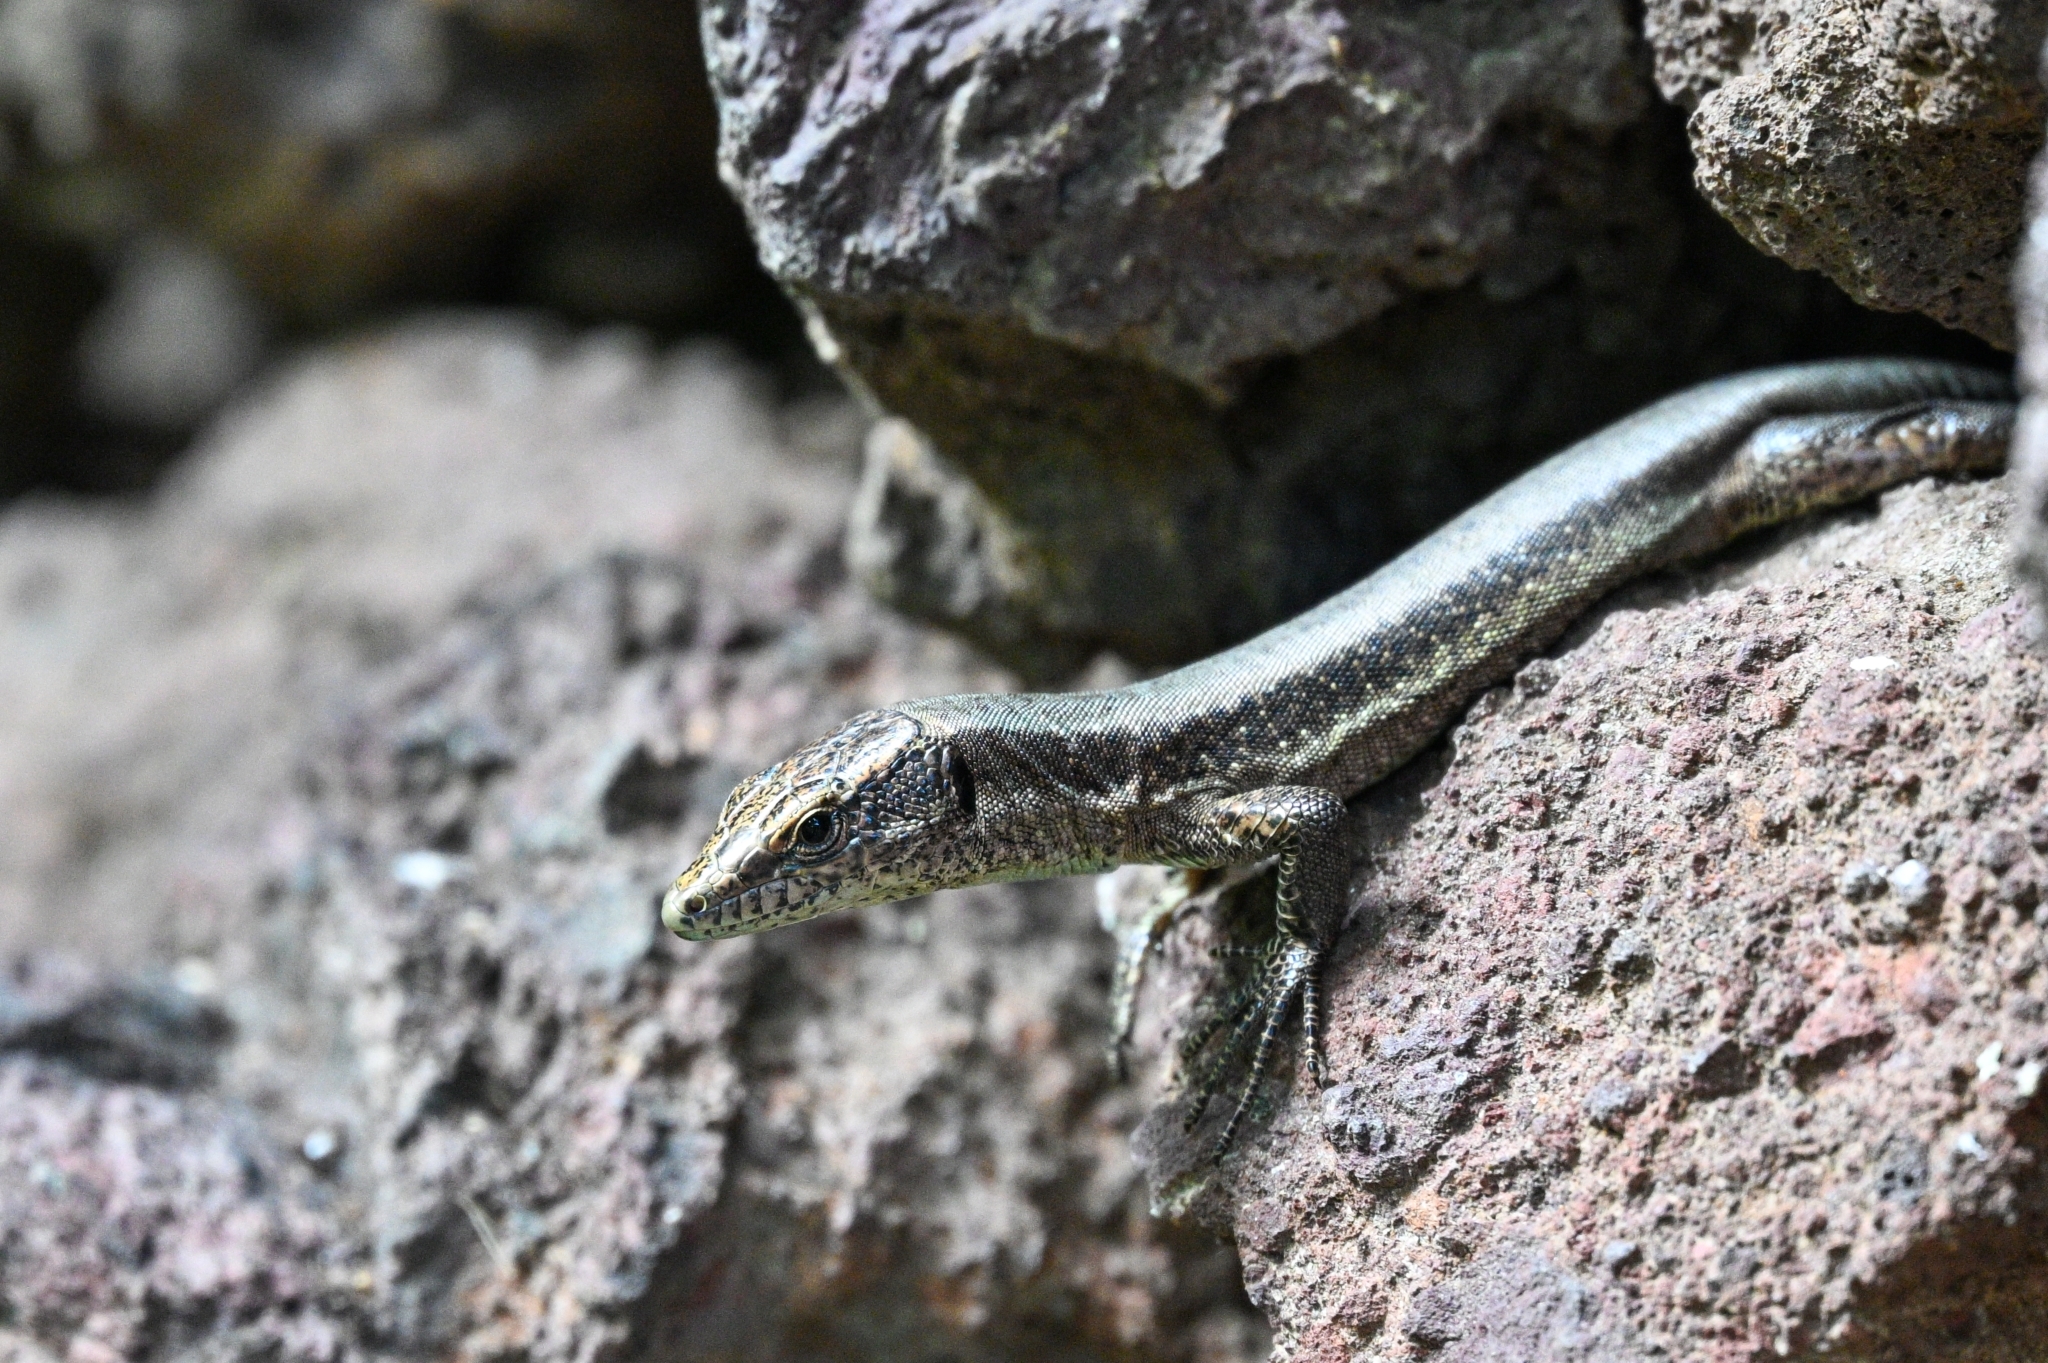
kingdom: Animalia
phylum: Chordata
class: Squamata
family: Lacertidae
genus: Teira
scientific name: Teira dugesii
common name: Madeira lizard
